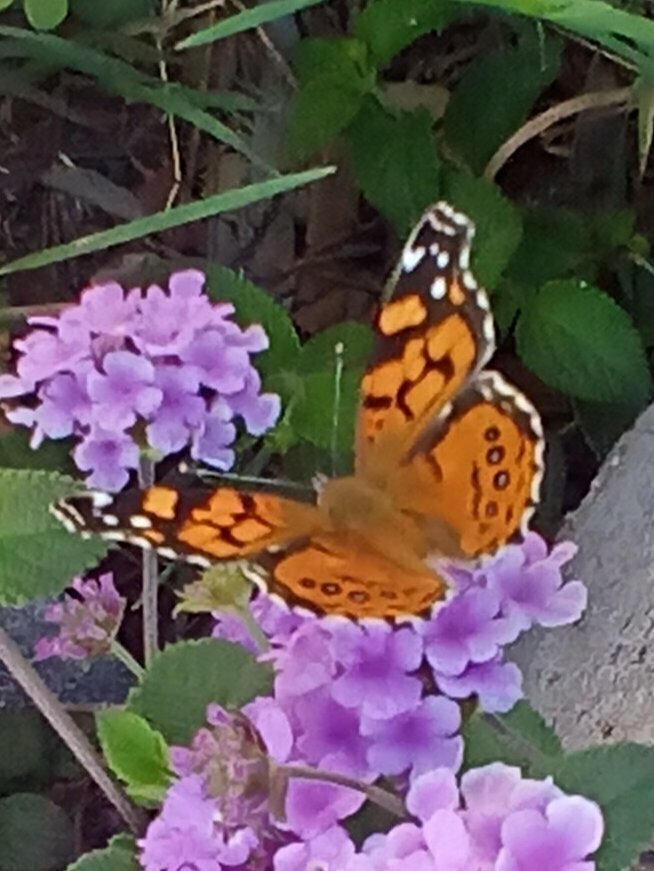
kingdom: Animalia
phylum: Arthropoda
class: Insecta
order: Lepidoptera
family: Nymphalidae
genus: Vanessa
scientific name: Vanessa annabella
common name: West coast lady
